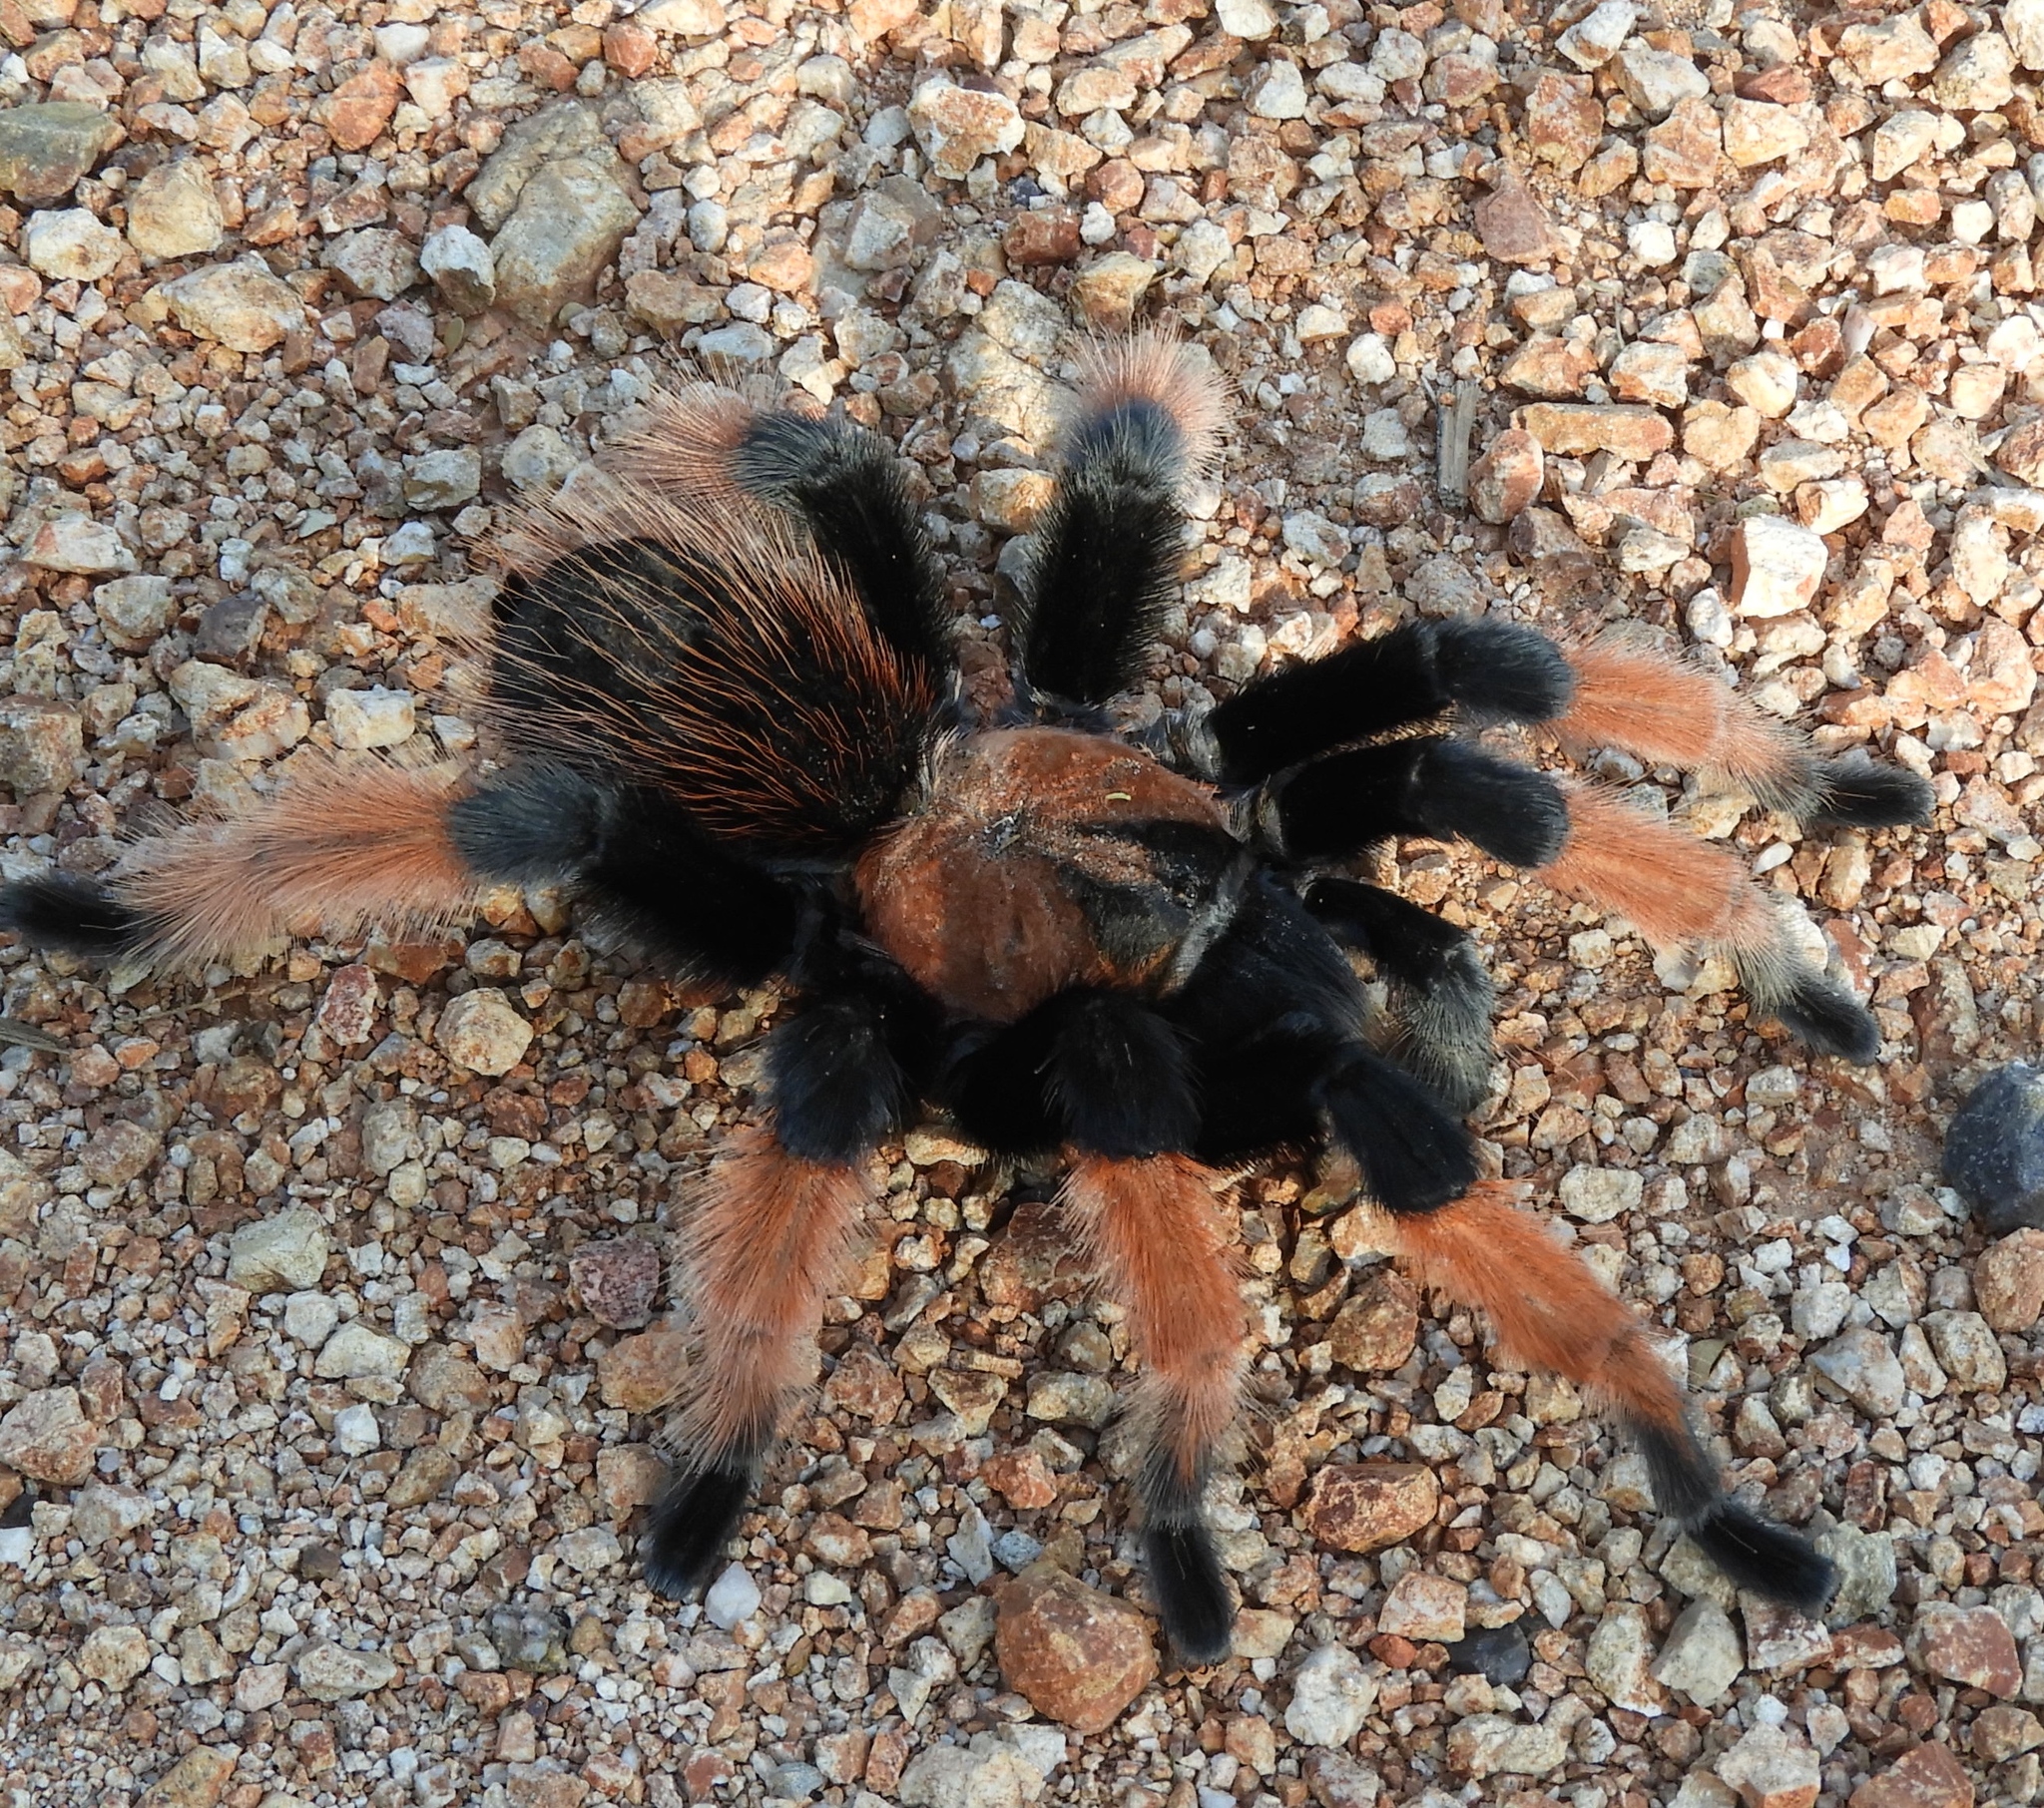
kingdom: Animalia
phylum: Arthropoda
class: Arachnida
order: Araneae
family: Theraphosidae
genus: Brachypelma
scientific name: Brachypelma emilia
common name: Mexican redleg
